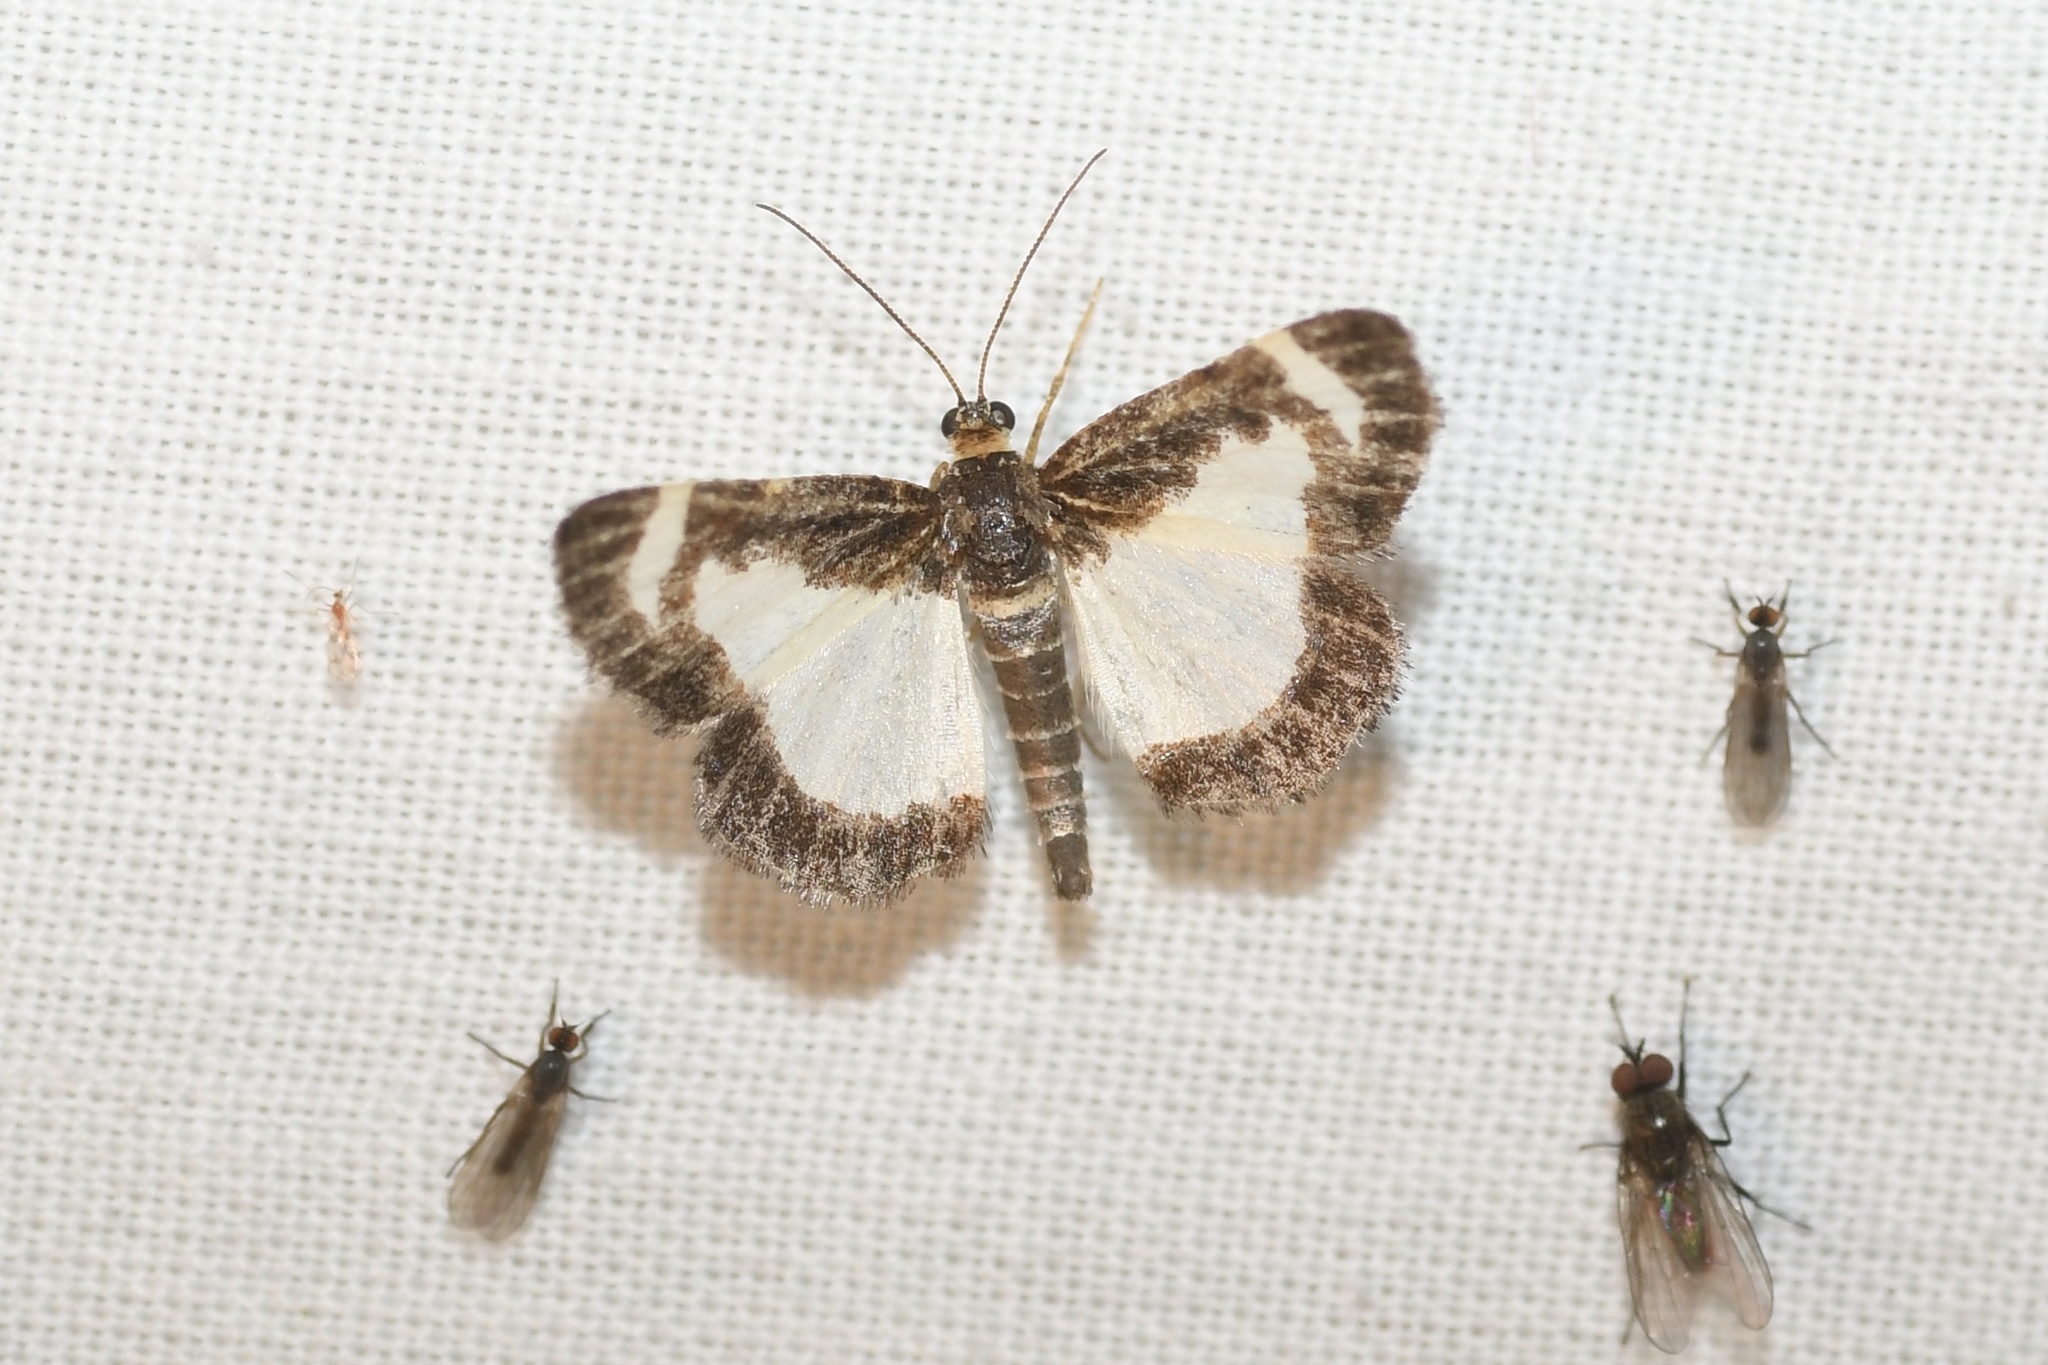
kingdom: Animalia
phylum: Arthropoda
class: Insecta
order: Lepidoptera
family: Geometridae
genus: Heliomata
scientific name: Heliomata cycladata
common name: Common spring moth
